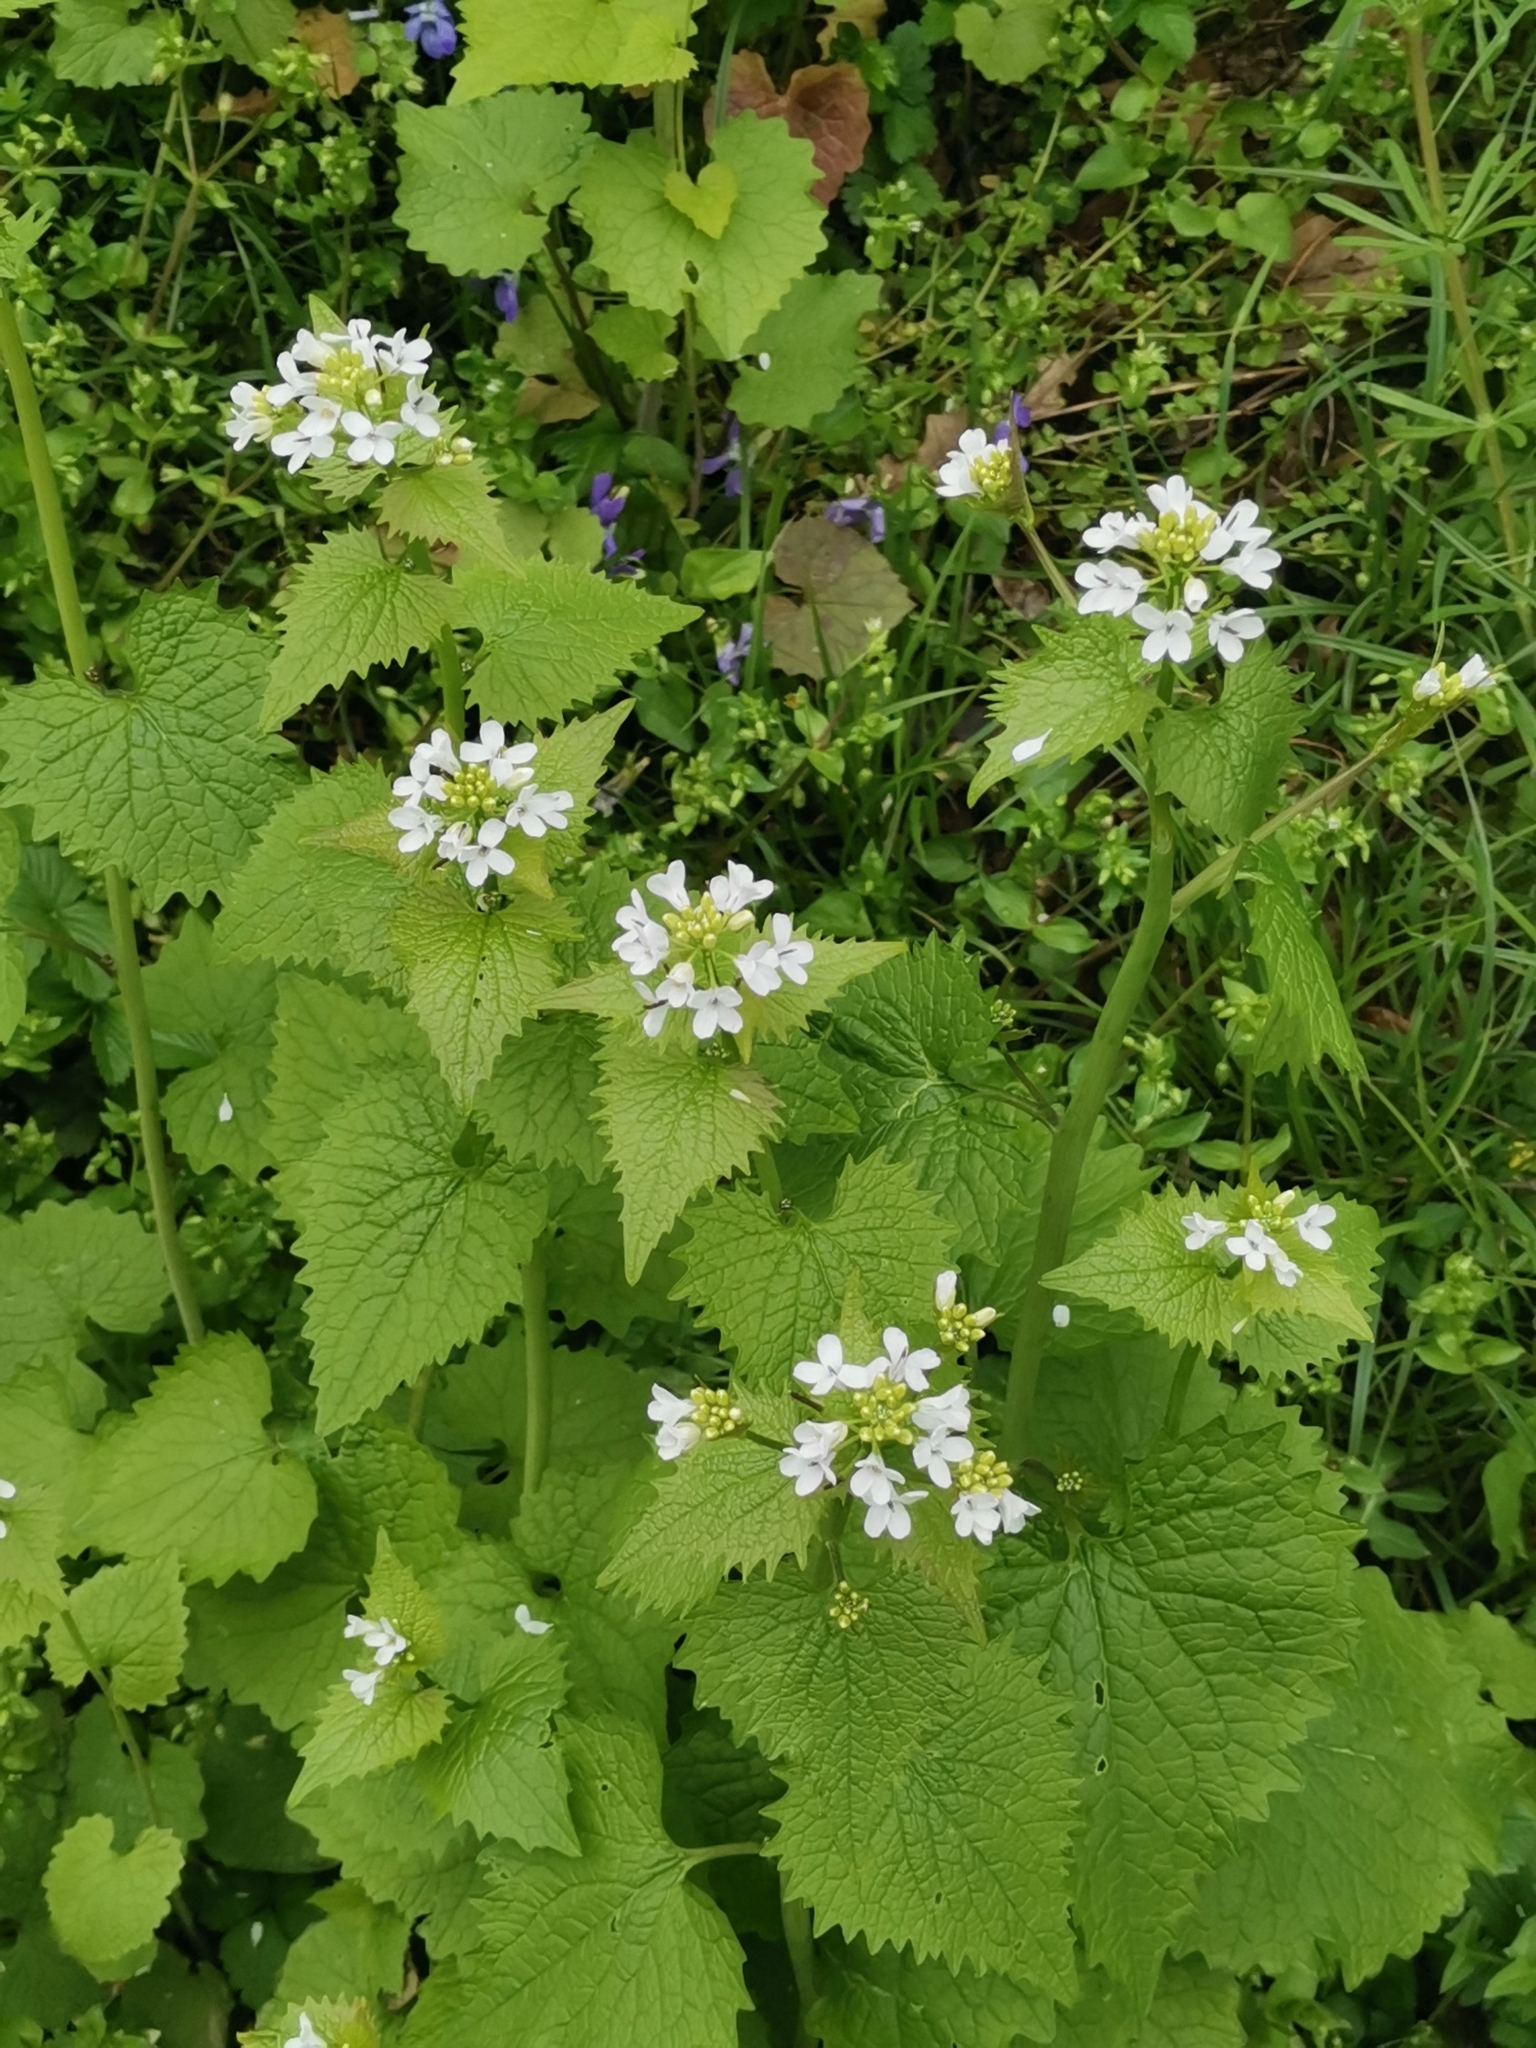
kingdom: Plantae
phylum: Tracheophyta
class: Magnoliopsida
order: Brassicales
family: Brassicaceae
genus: Alliaria
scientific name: Alliaria petiolata
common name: Garlic mustard
